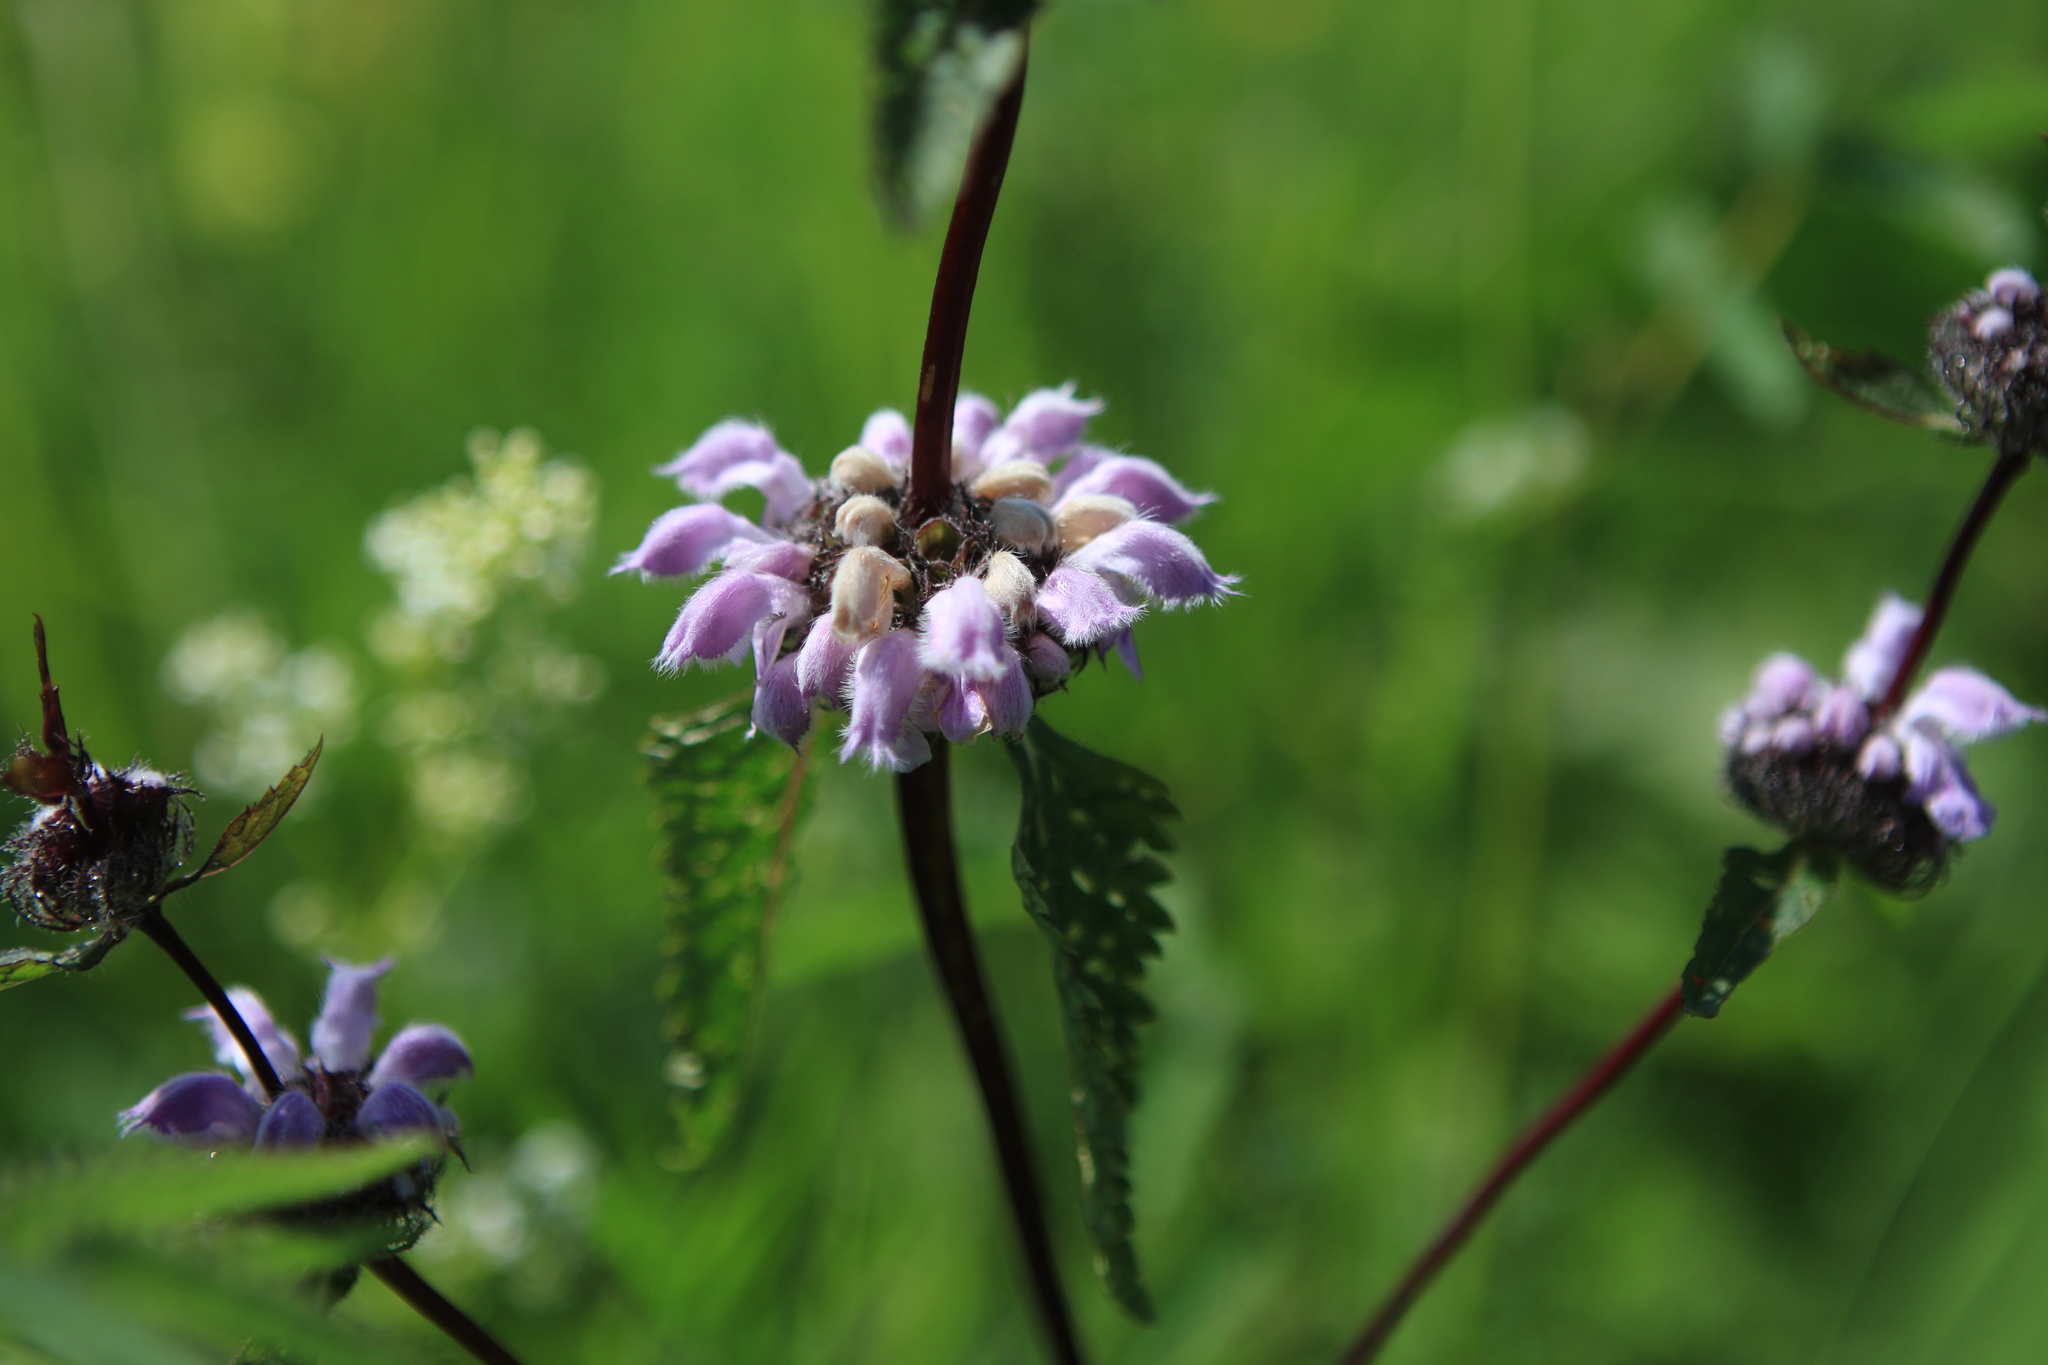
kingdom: Plantae
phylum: Tracheophyta
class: Magnoliopsida
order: Lamiales
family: Lamiaceae
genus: Phlomoides
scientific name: Phlomoides tuberosa
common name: Tuberous jerusalem sage
